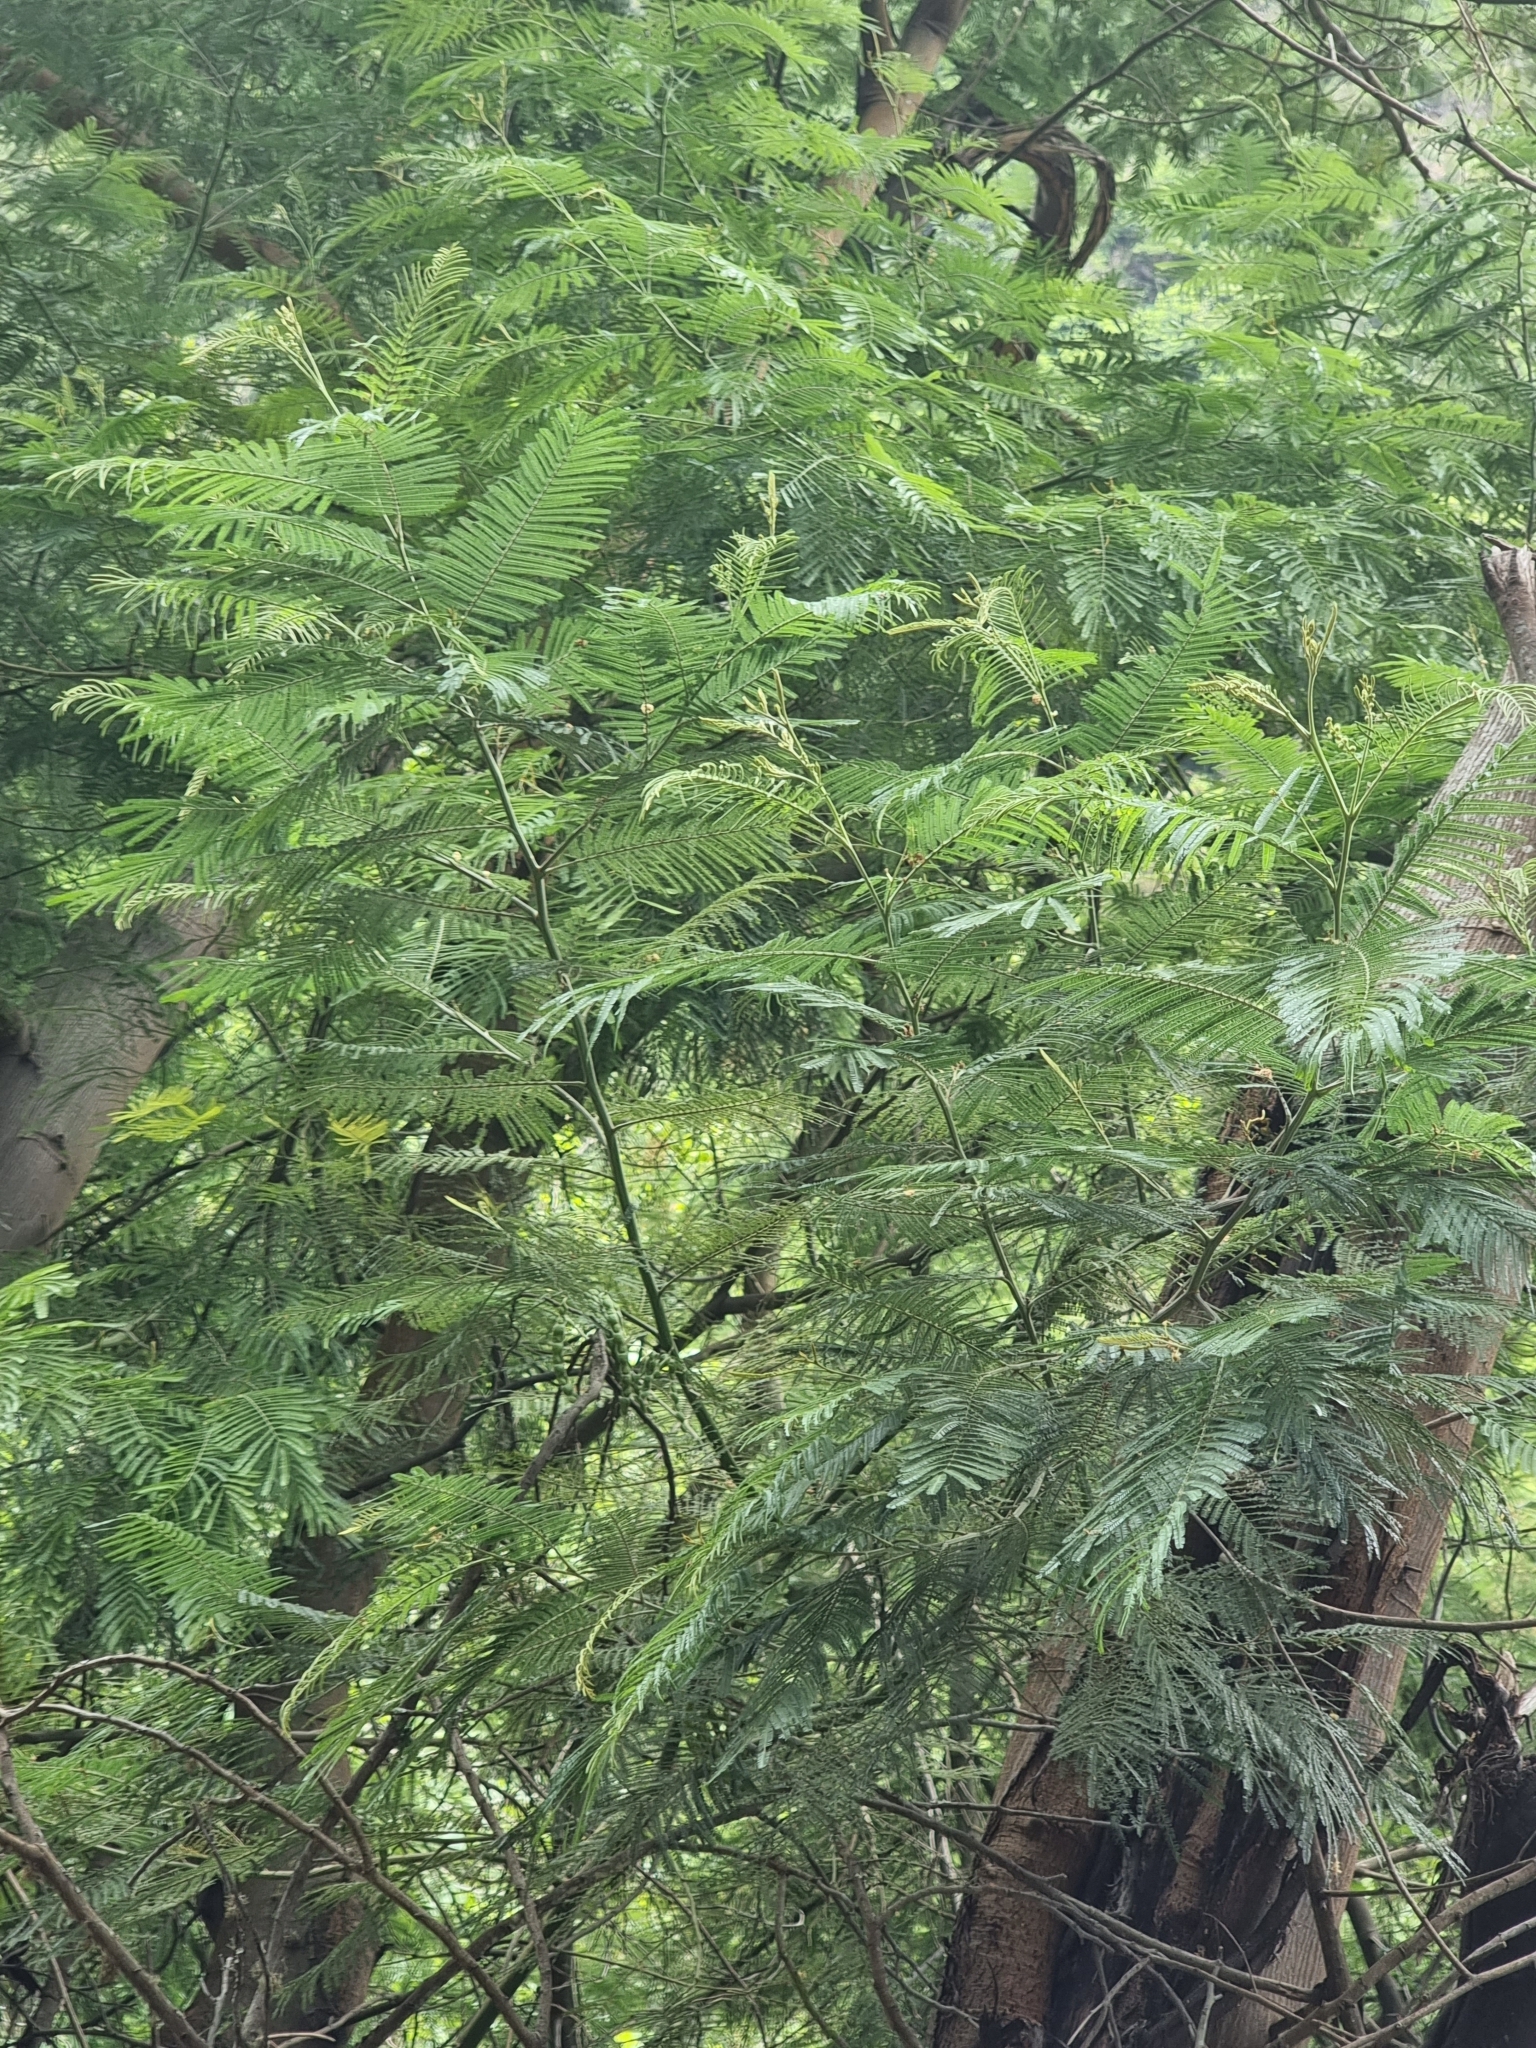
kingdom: Plantae
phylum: Tracheophyta
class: Magnoliopsida
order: Fabales
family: Fabaceae
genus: Acacia
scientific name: Acacia mearnsii
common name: Black wattle
